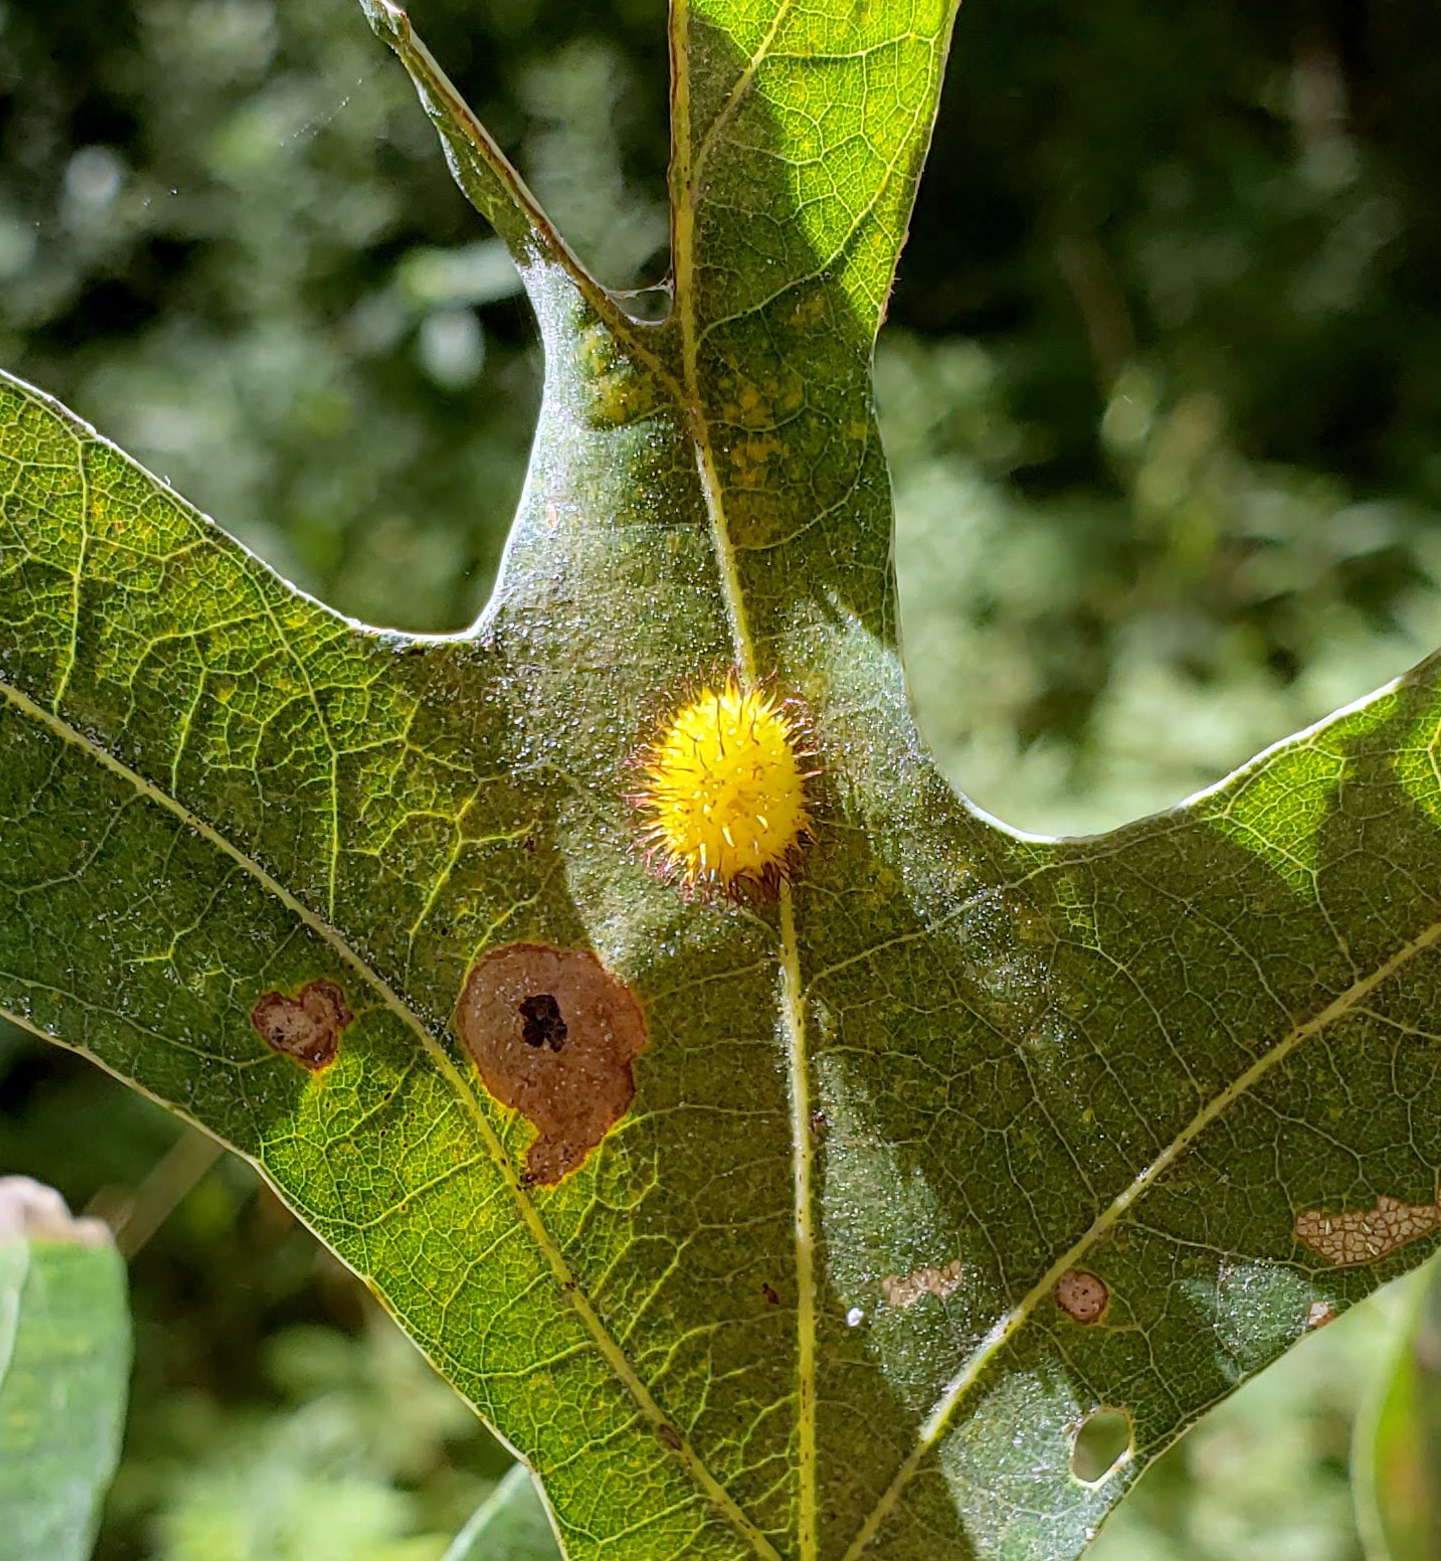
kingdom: Animalia
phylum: Arthropoda
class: Insecta
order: Hymenoptera
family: Cynipidae
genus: Acraspis
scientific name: Acraspis erinacei
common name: Hedgehog gall wasp
